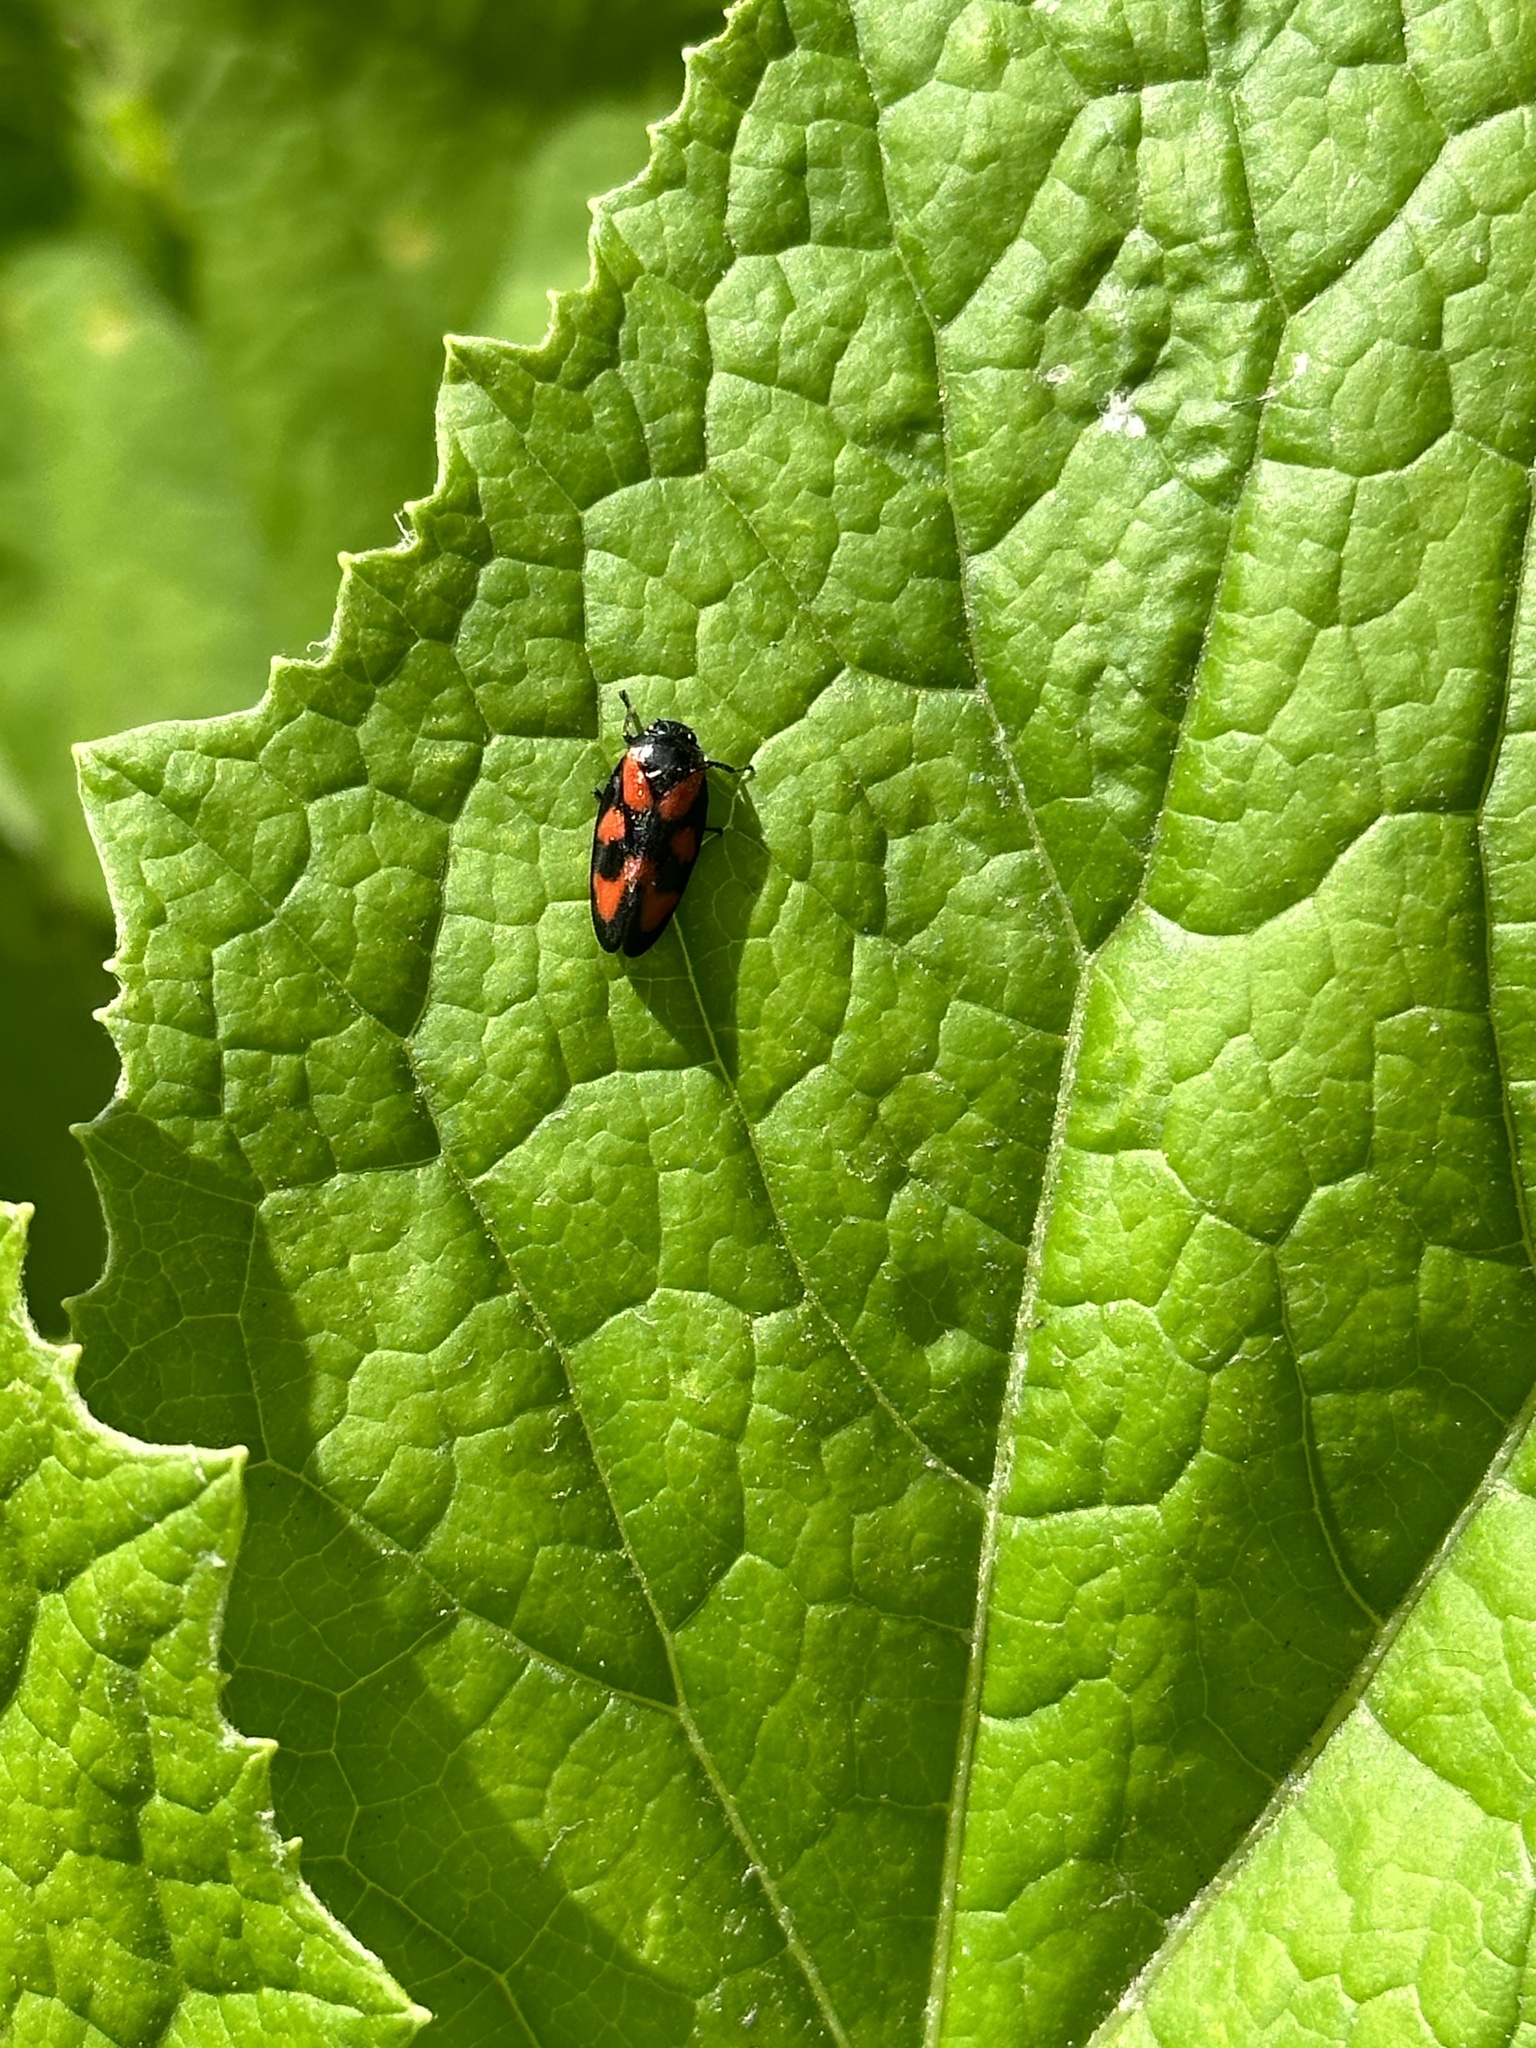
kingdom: Animalia
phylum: Arthropoda
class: Insecta
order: Hemiptera
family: Cercopidae
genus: Cercopis
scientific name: Cercopis vulnerata
